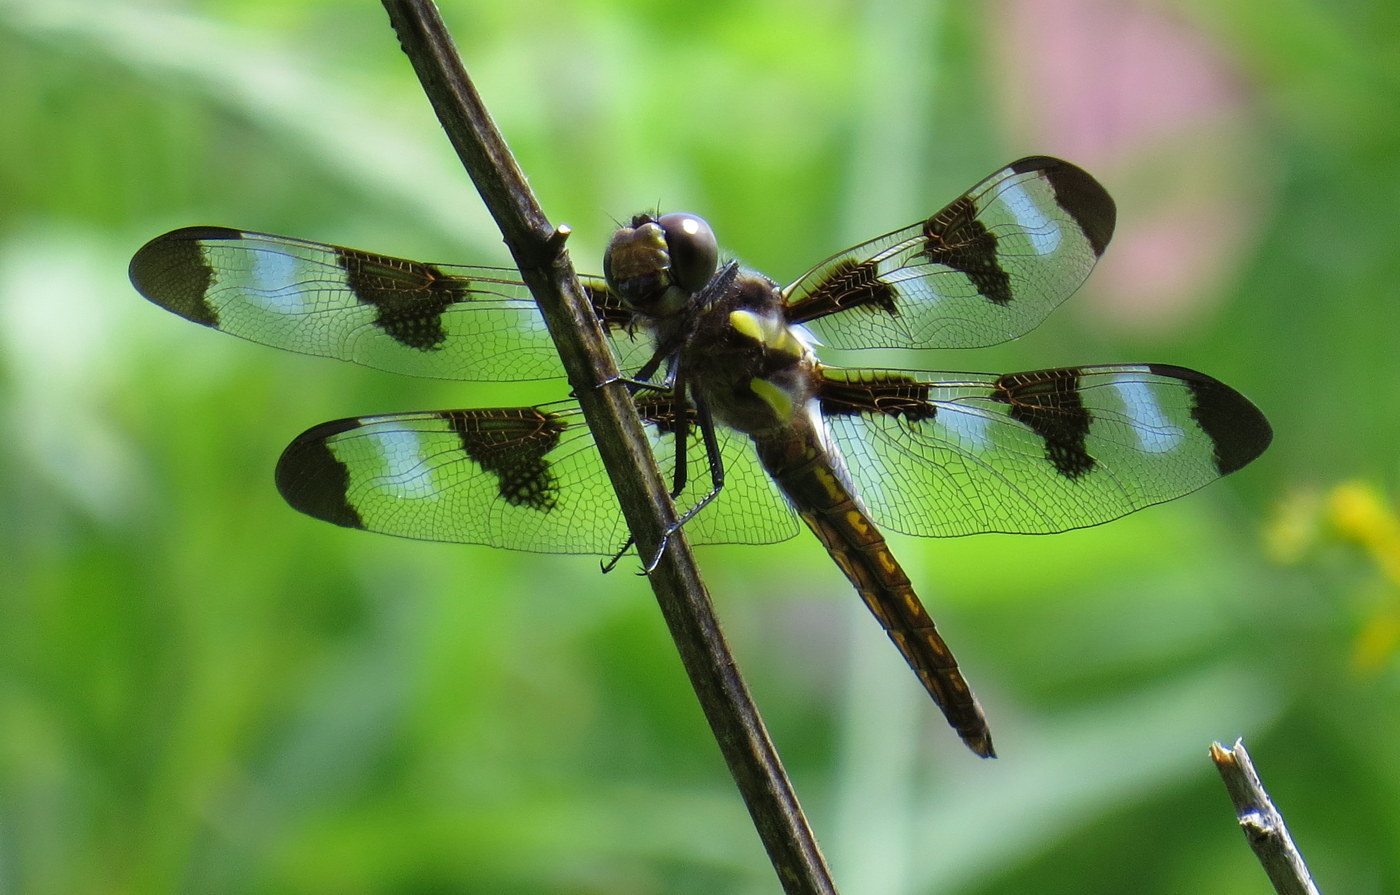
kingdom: Animalia
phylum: Arthropoda
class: Insecta
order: Odonata
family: Libellulidae
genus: Libellula
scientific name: Libellula pulchella
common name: Twelve-spotted skimmer
